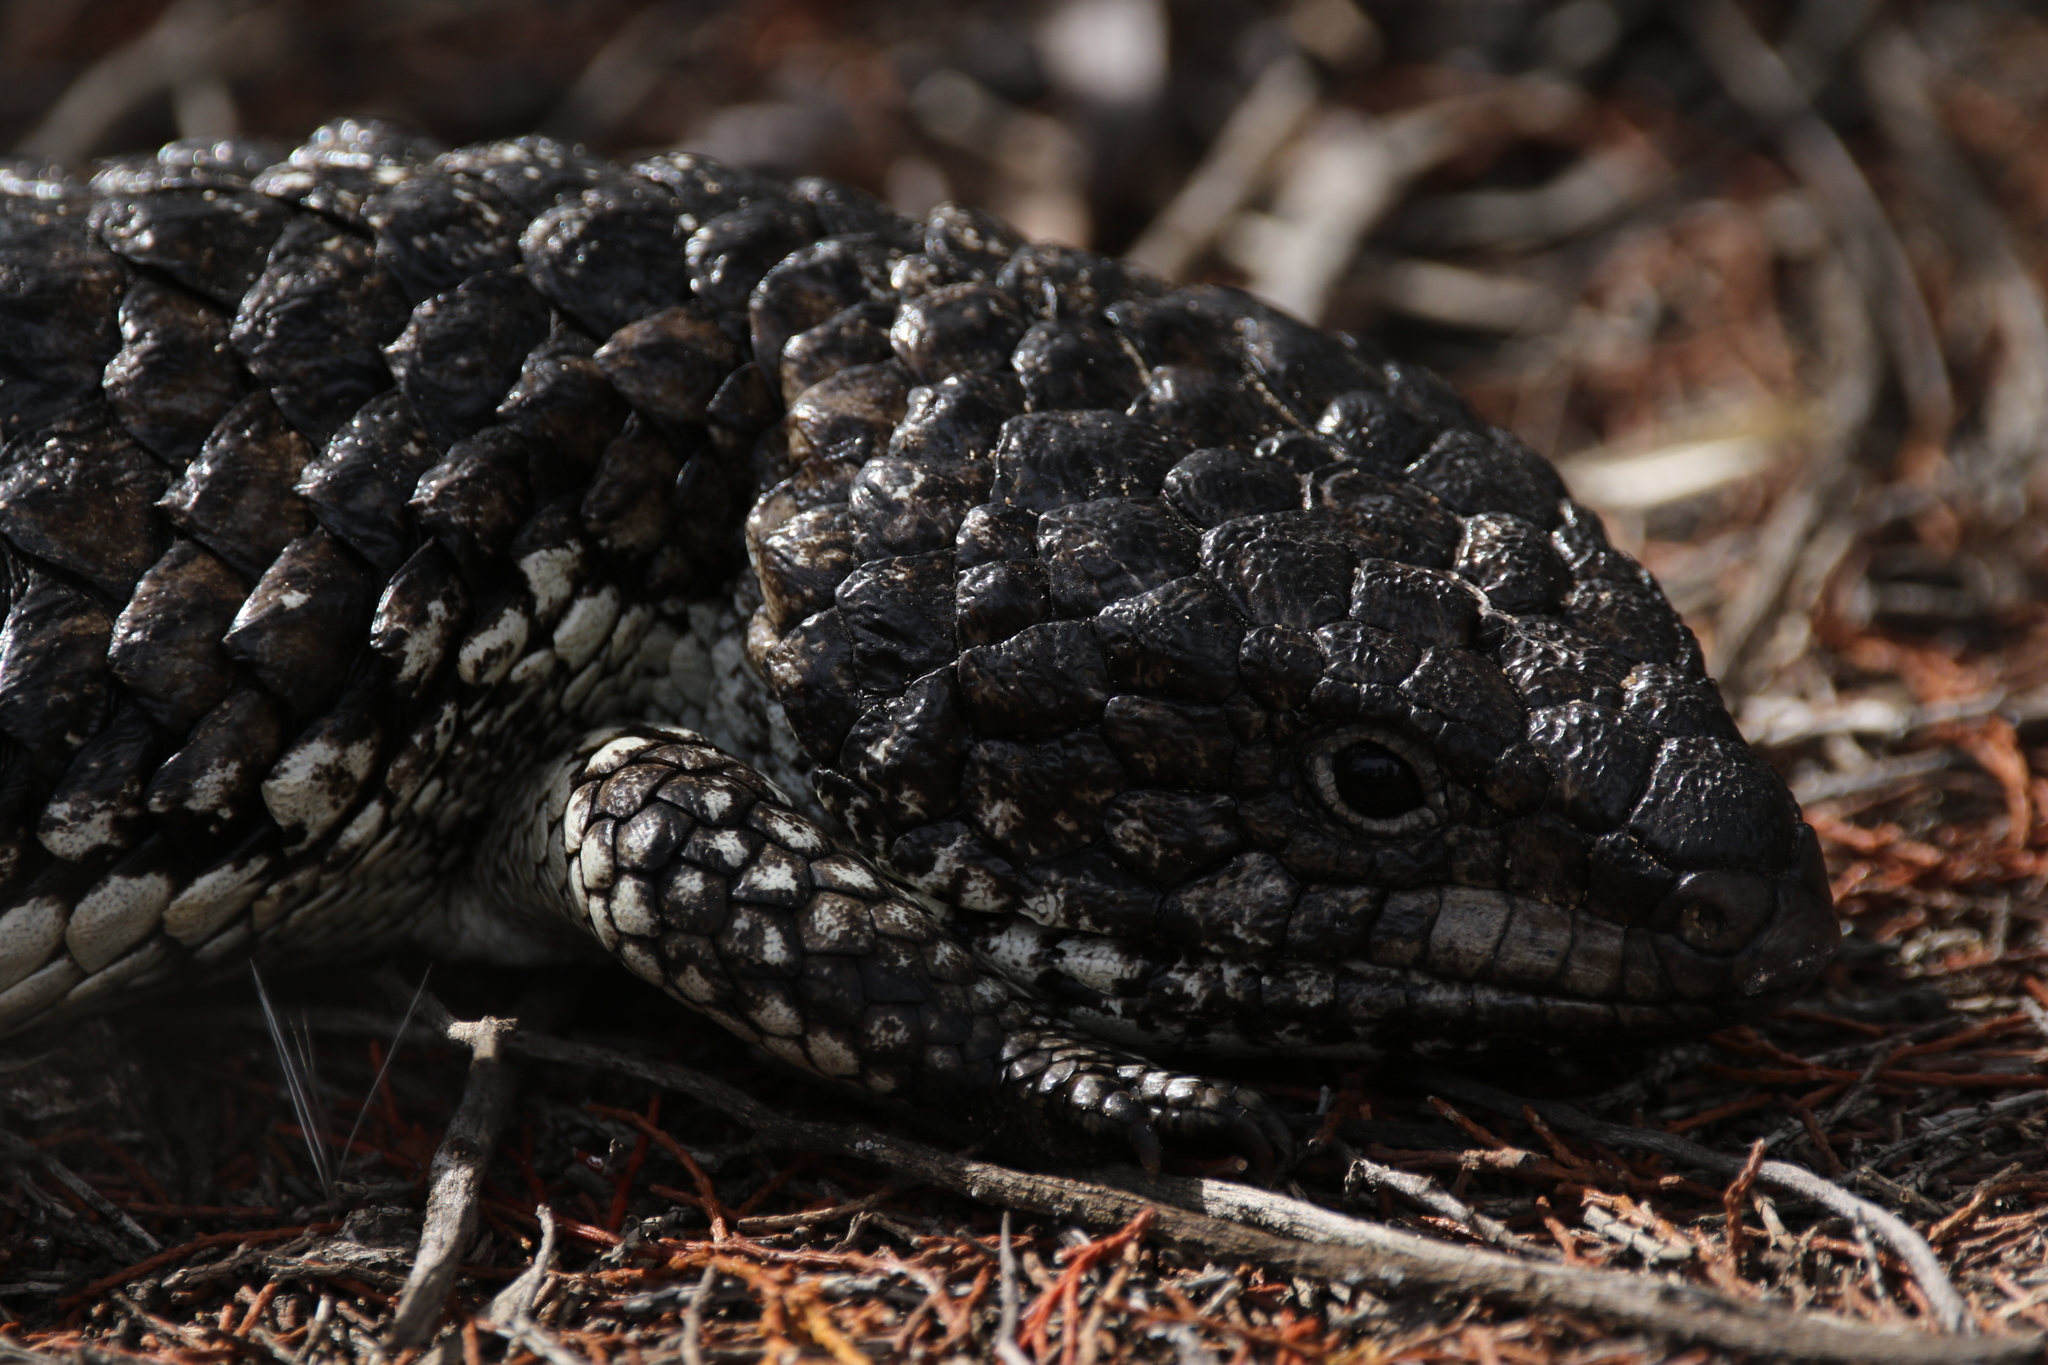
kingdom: Animalia
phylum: Chordata
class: Squamata
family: Scincidae
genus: Tiliqua
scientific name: Tiliqua rugosa
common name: Pinecone lizard
